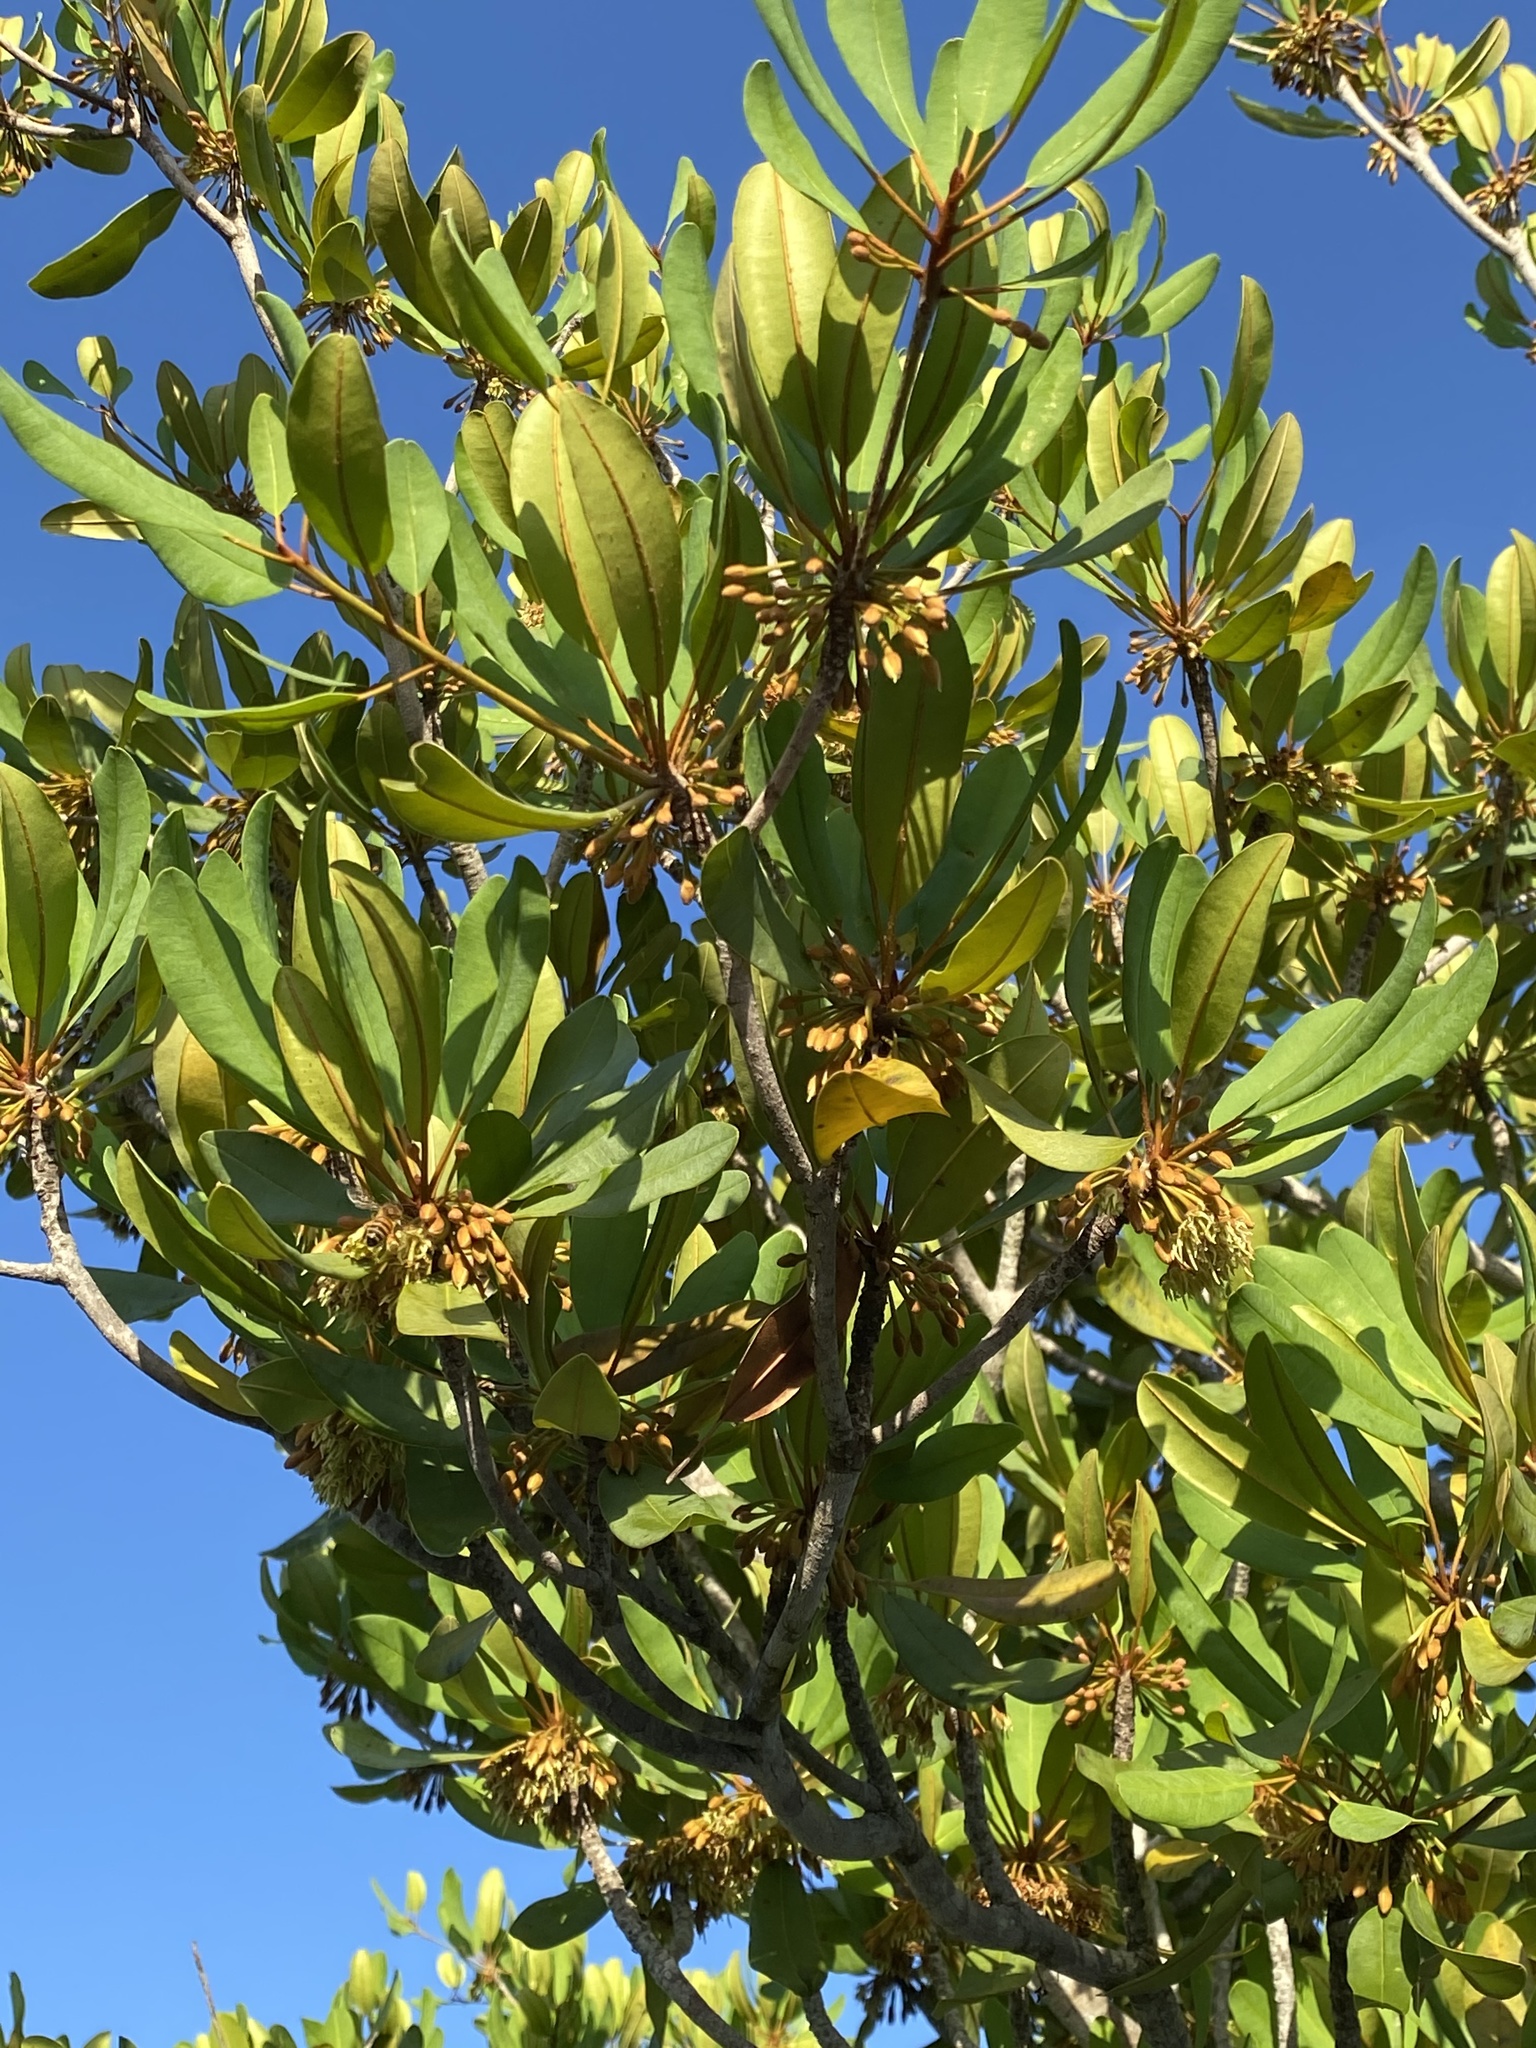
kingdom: Plantae
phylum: Tracheophyta
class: Magnoliopsida
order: Ericales
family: Sapotaceae
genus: Manilkara
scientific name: Manilkara jaimiqui
